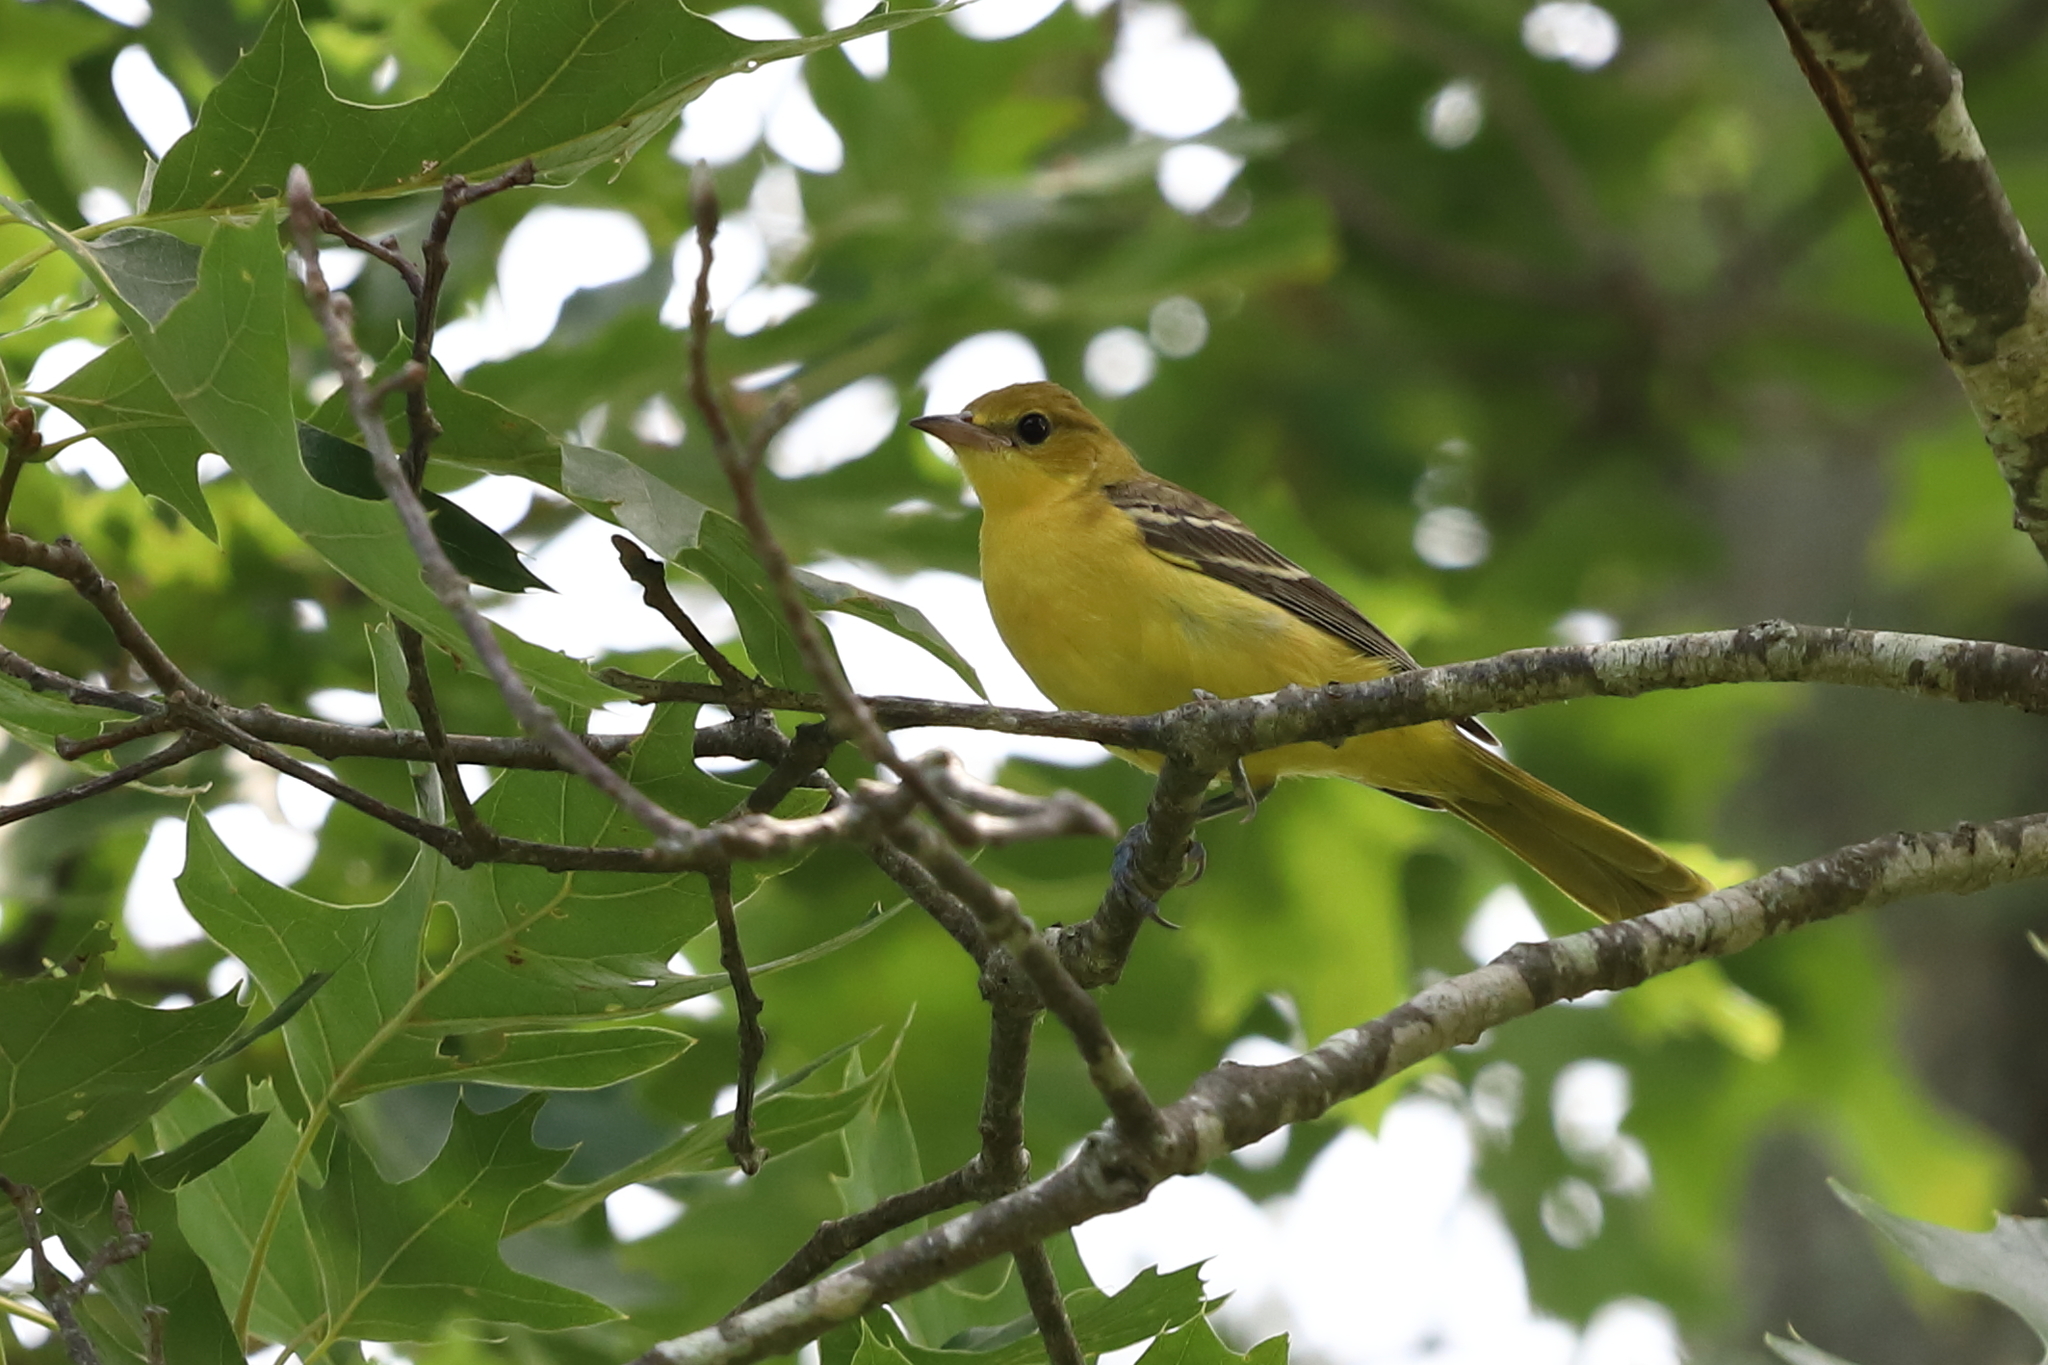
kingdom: Animalia
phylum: Chordata
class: Aves
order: Passeriformes
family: Icteridae
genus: Icterus
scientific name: Icterus spurius
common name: Orchard oriole
